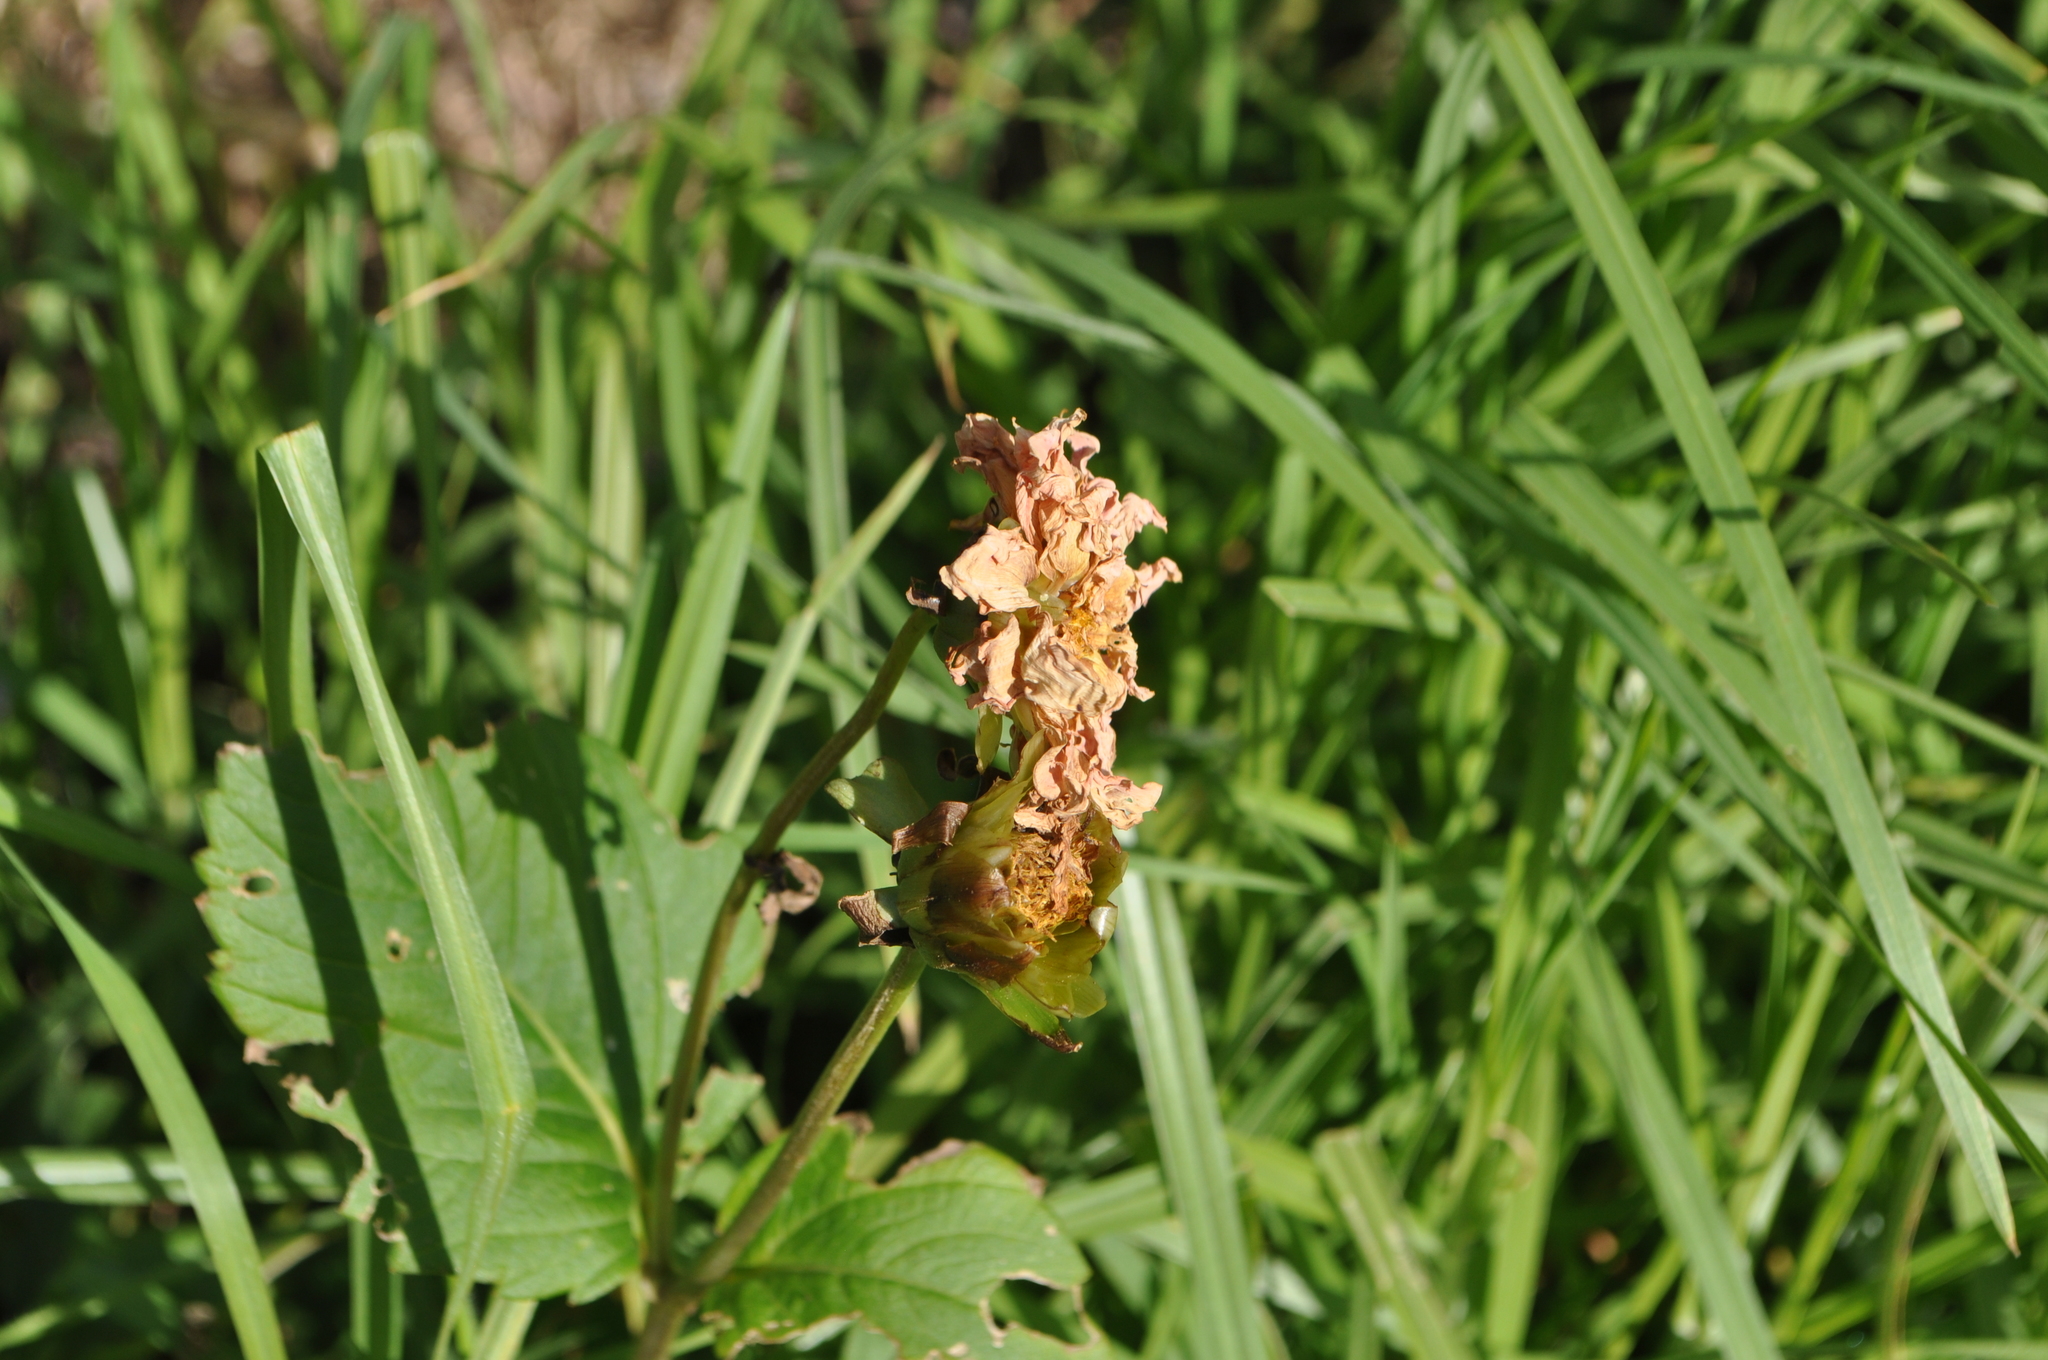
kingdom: Plantae
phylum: Tracheophyta
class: Magnoliopsida
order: Asterales
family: Asteraceae
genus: Dahlia
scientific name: Dahlia pinnata
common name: Dahlia
